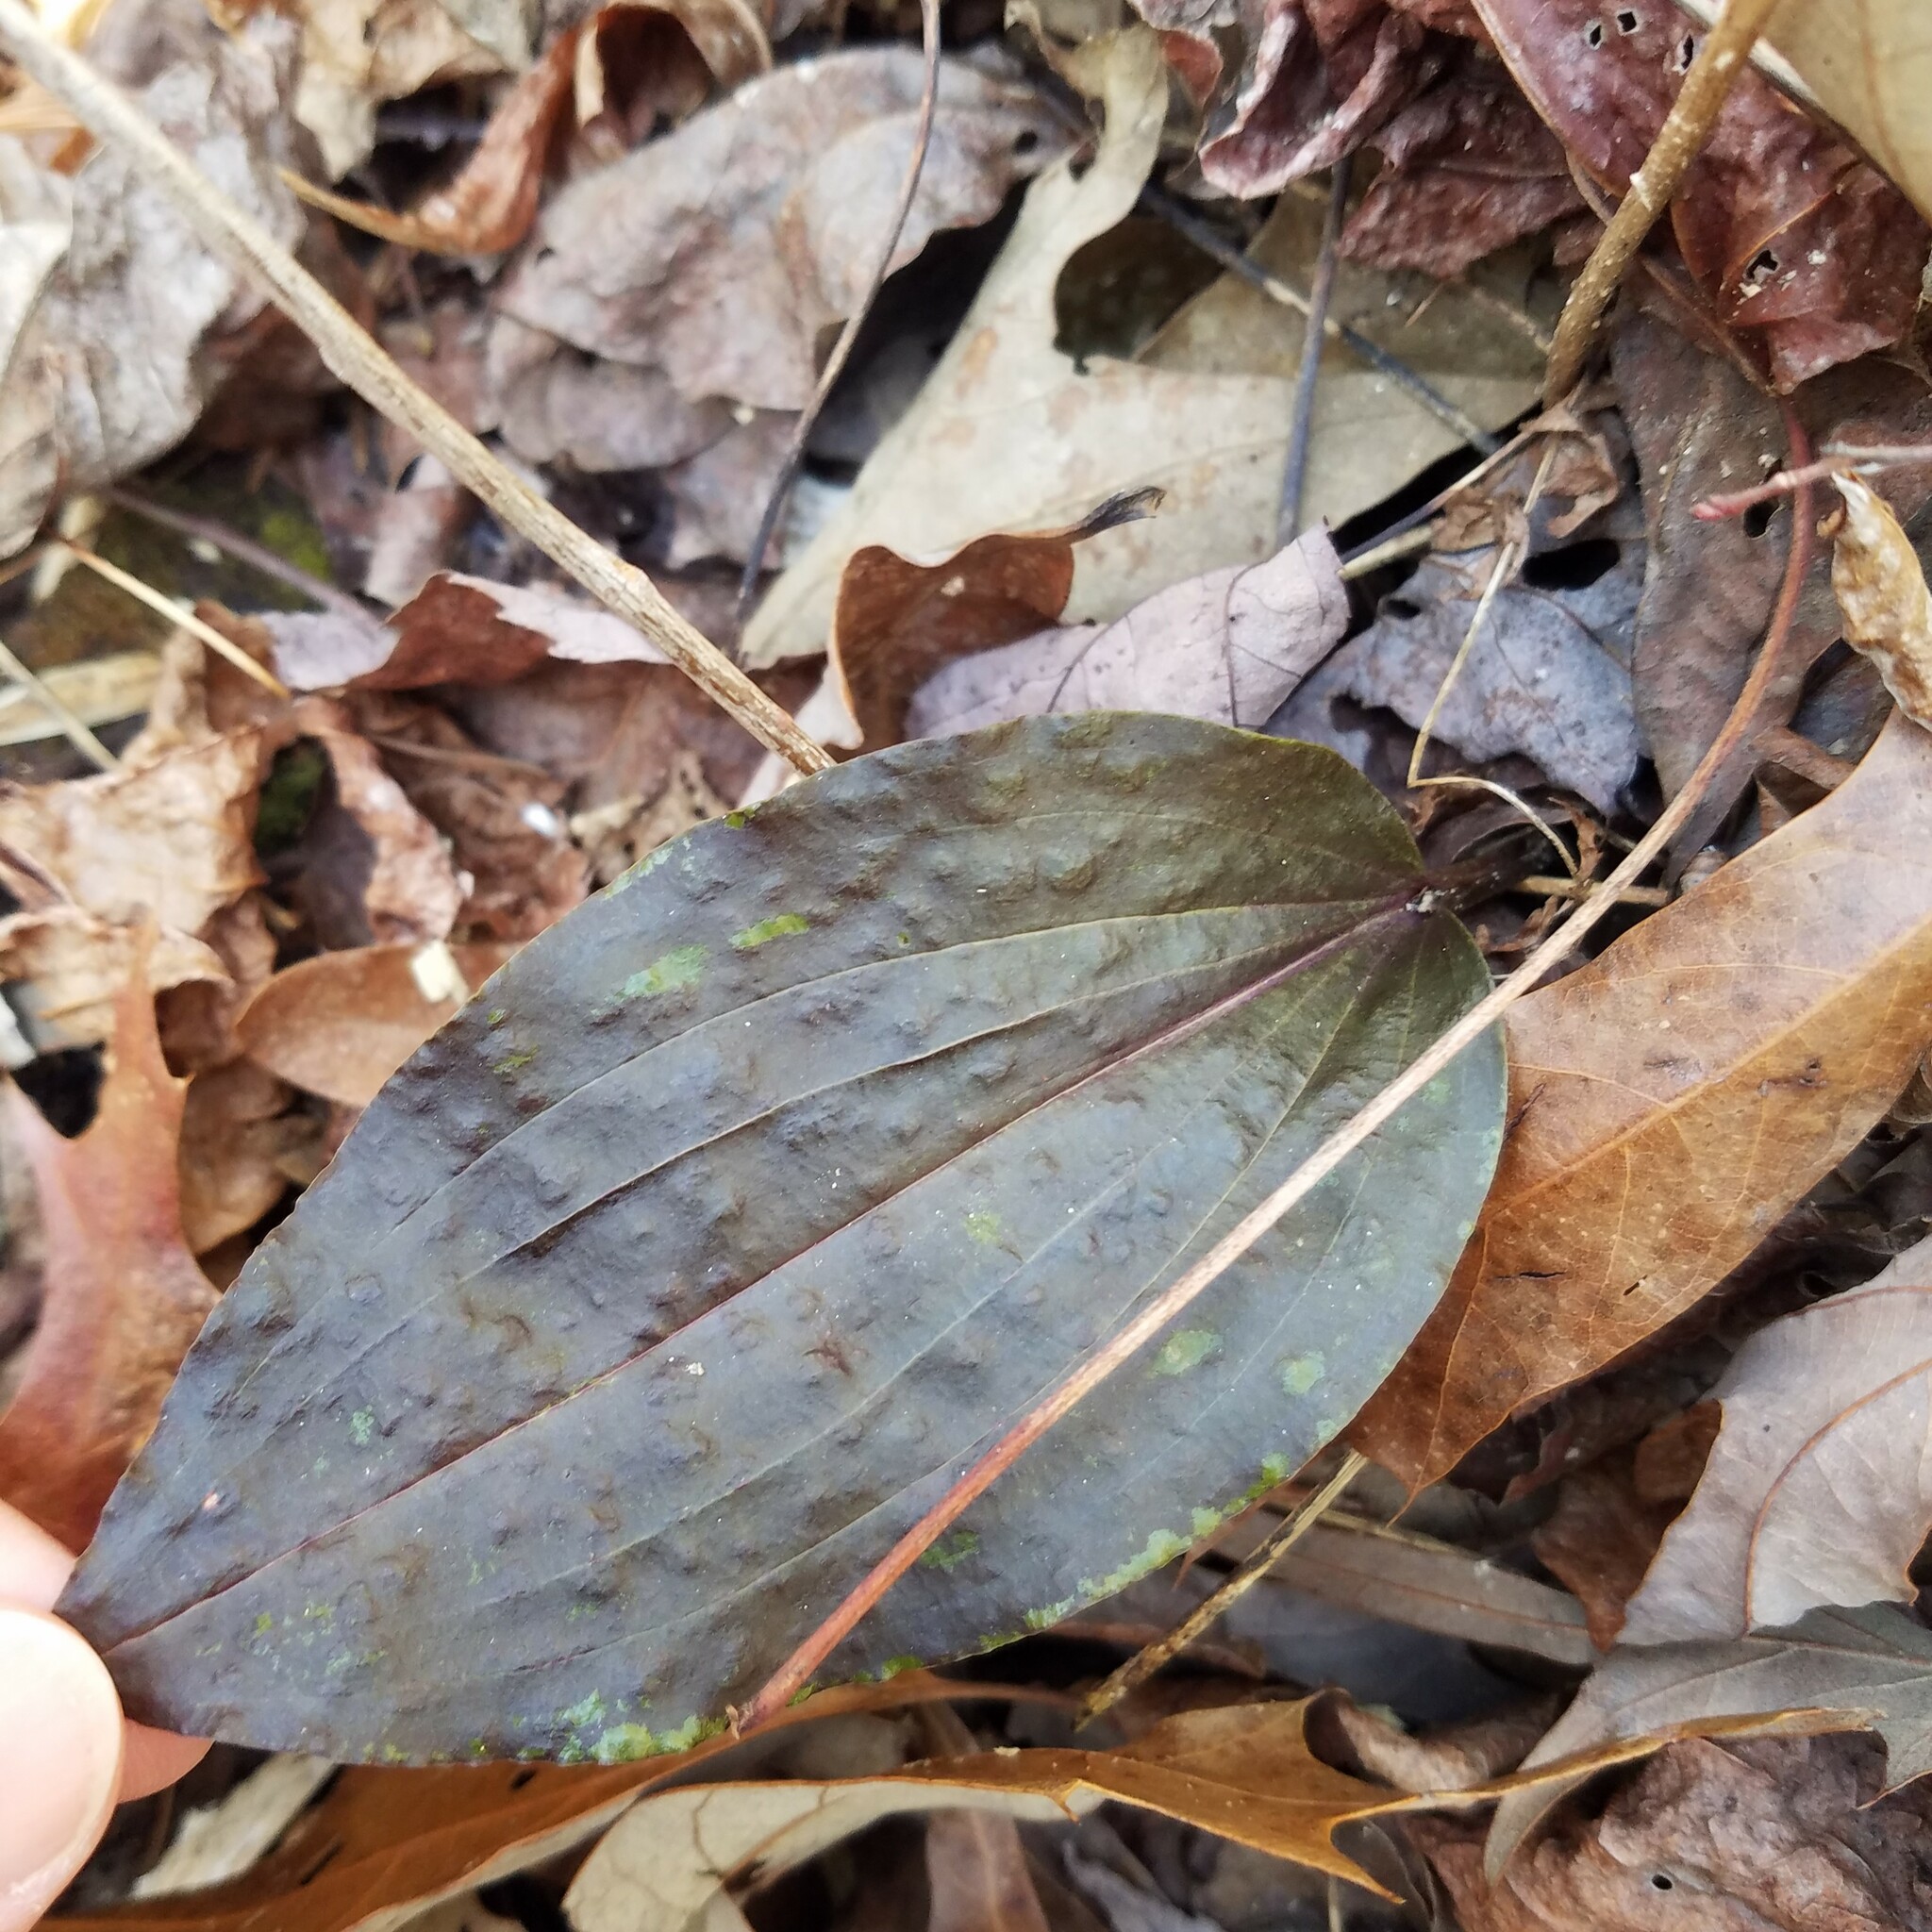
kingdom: Plantae
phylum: Tracheophyta
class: Liliopsida
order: Asparagales
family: Orchidaceae
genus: Tipularia
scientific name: Tipularia discolor
